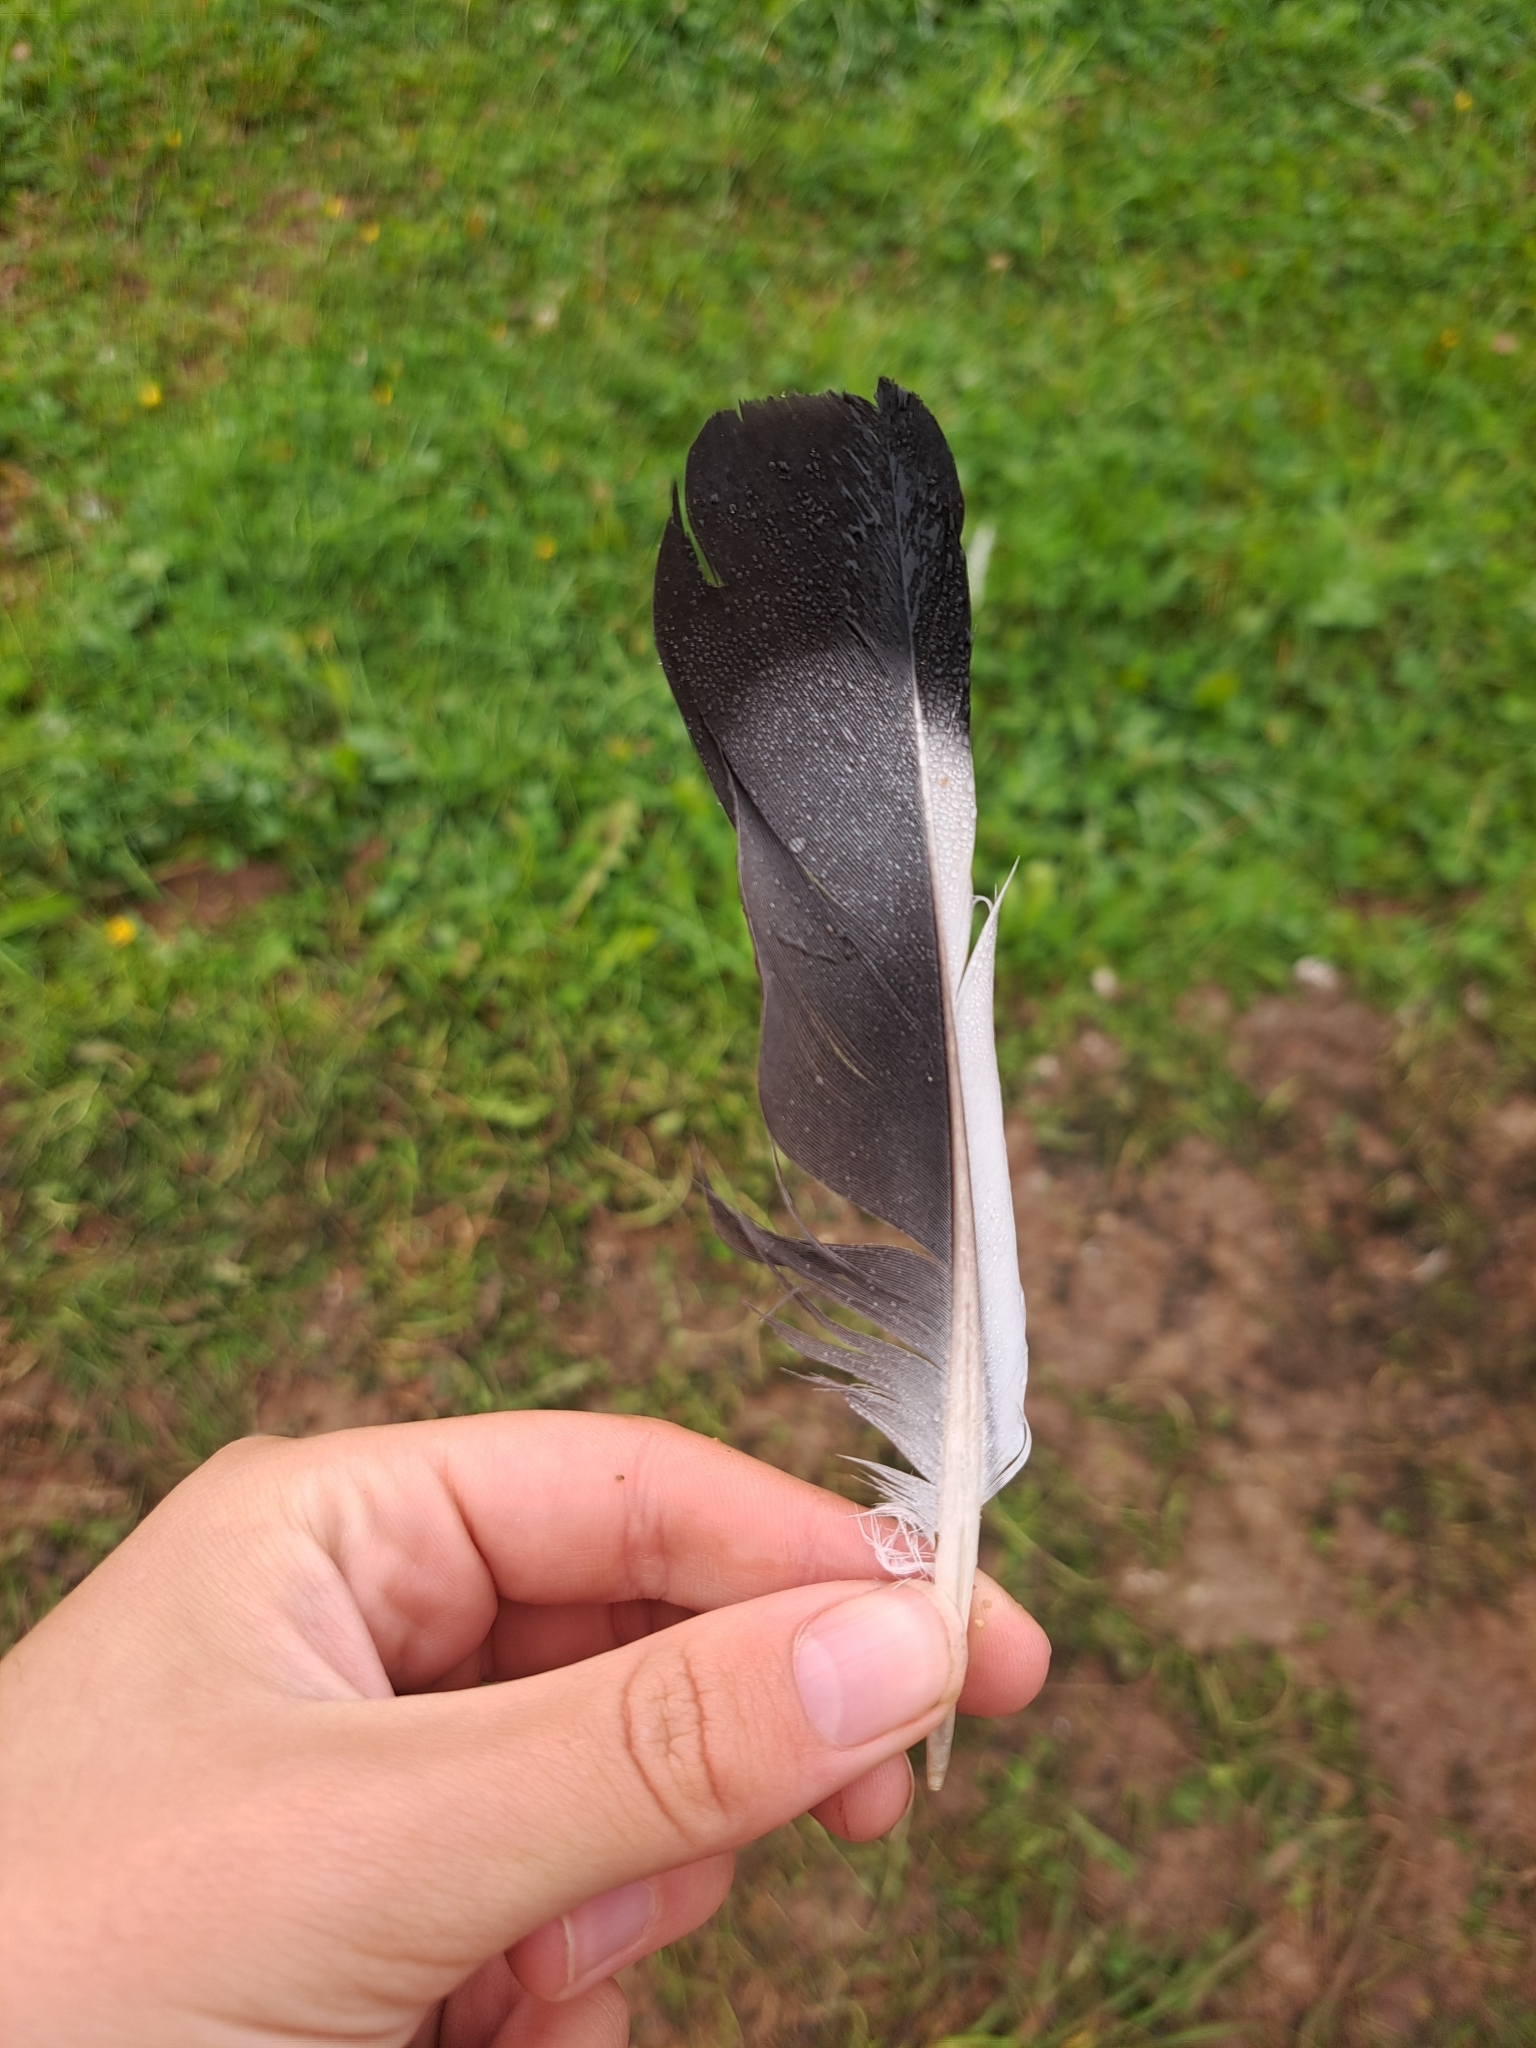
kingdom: Animalia
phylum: Chordata
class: Aves
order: Columbiformes
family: Columbidae
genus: Columba
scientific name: Columba livia
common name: Rock pigeon
